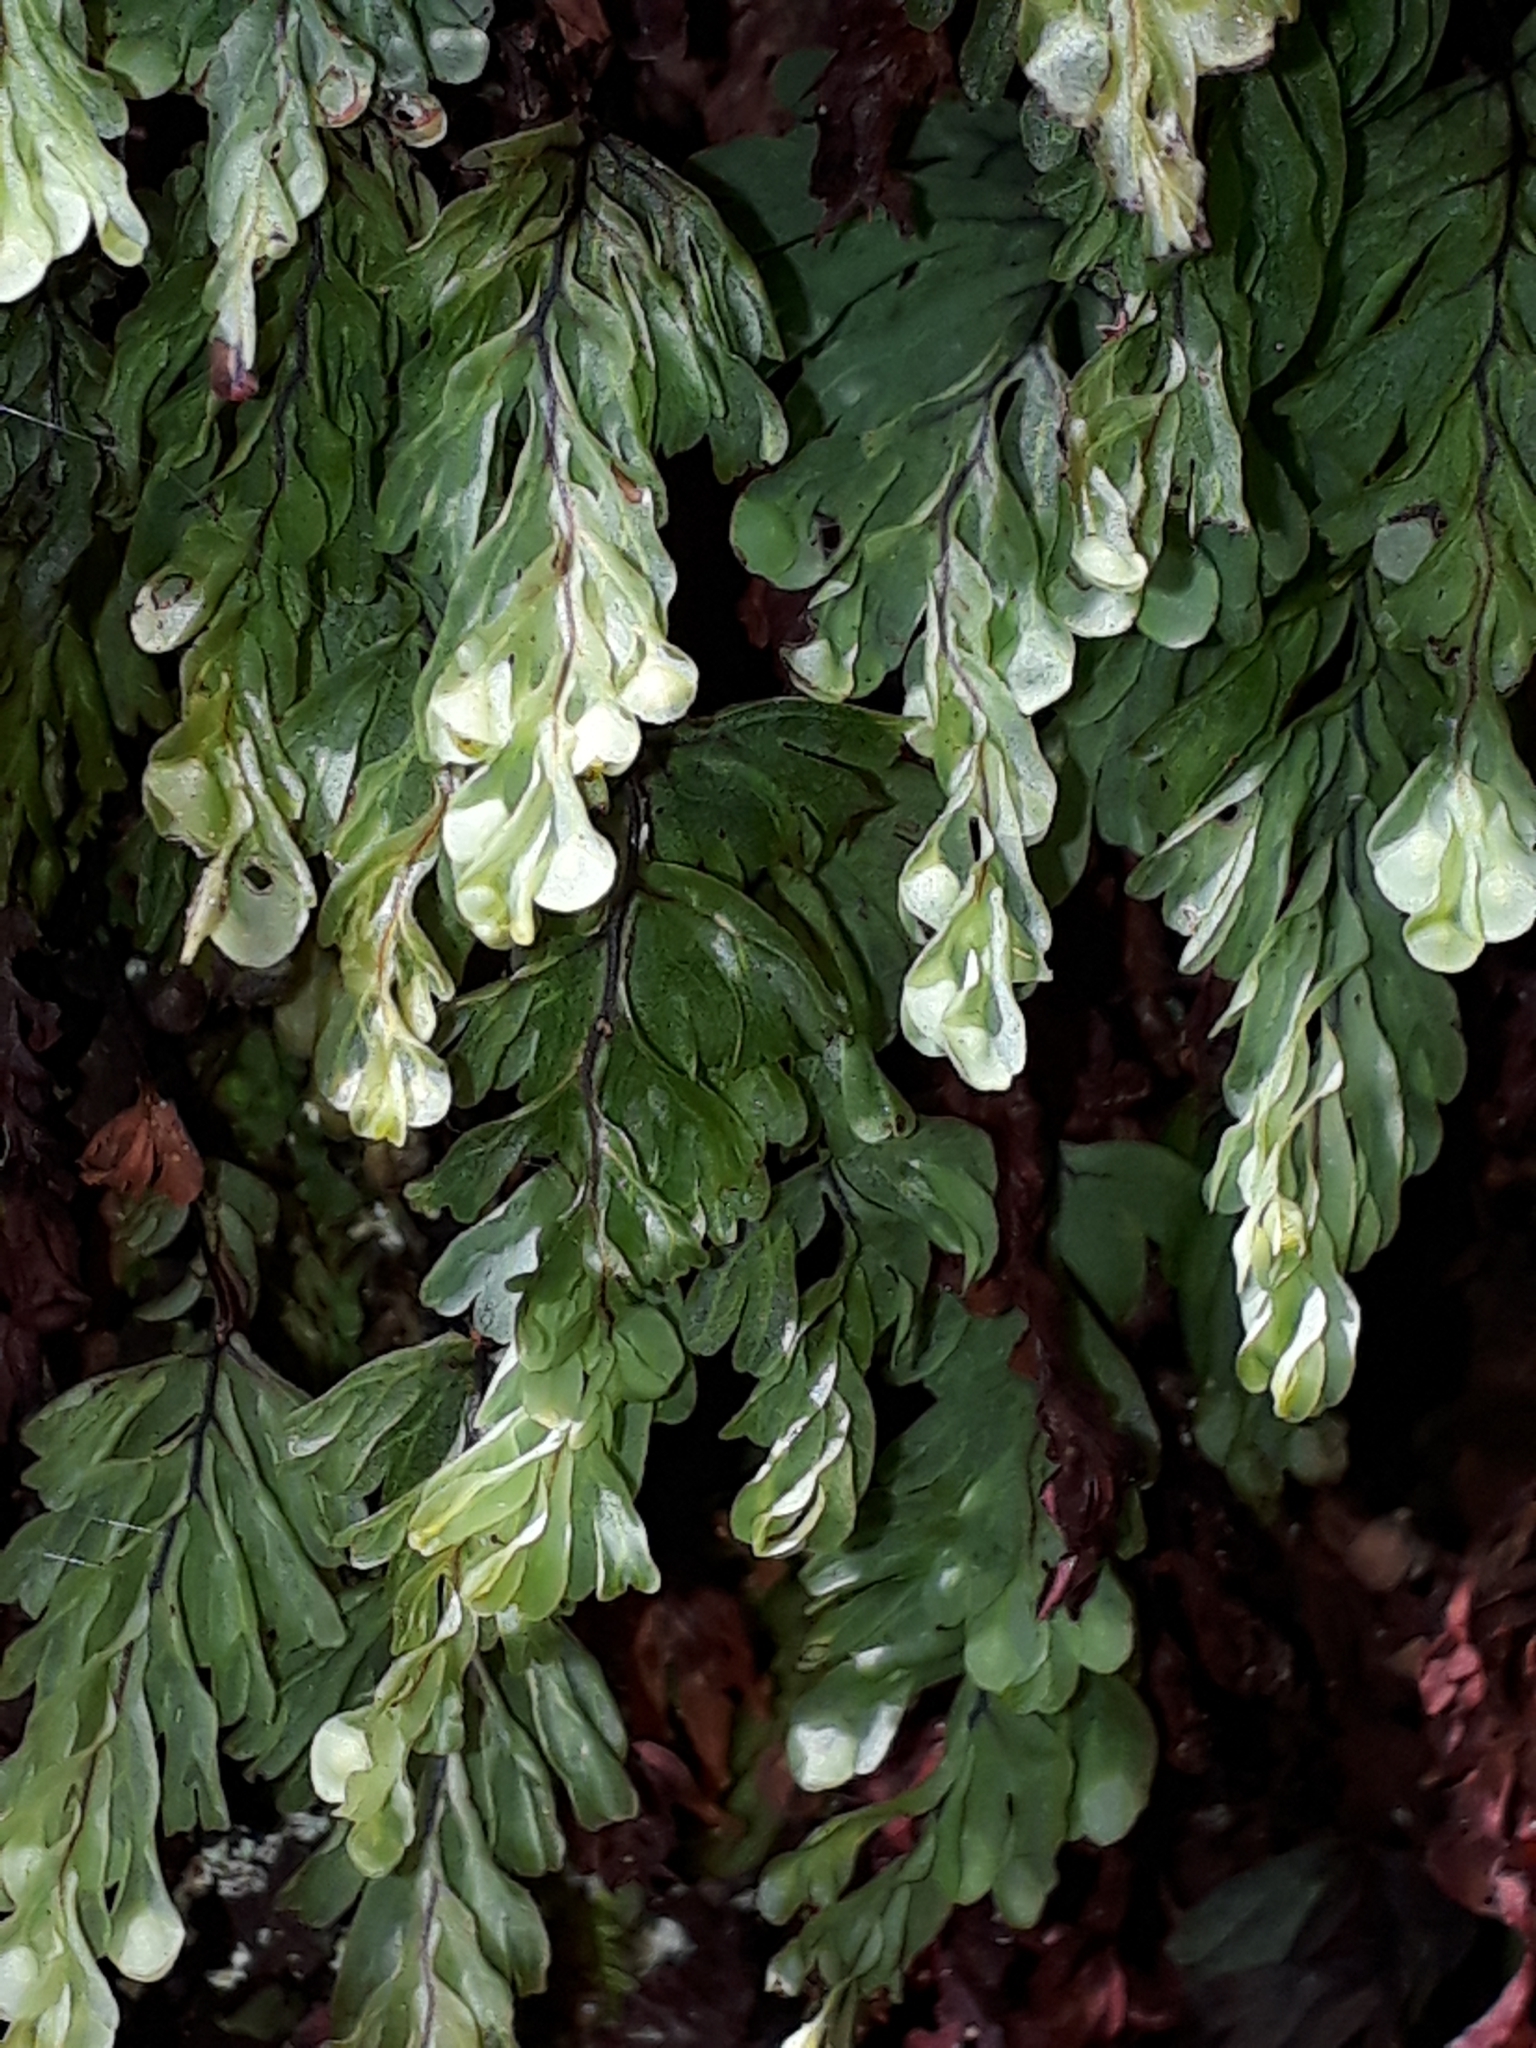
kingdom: Plantae
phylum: Tracheophyta
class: Polypodiopsida
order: Hymenophyllales
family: Hymenophyllaceae
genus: Hymenophyllum
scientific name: Hymenophyllum rarum
